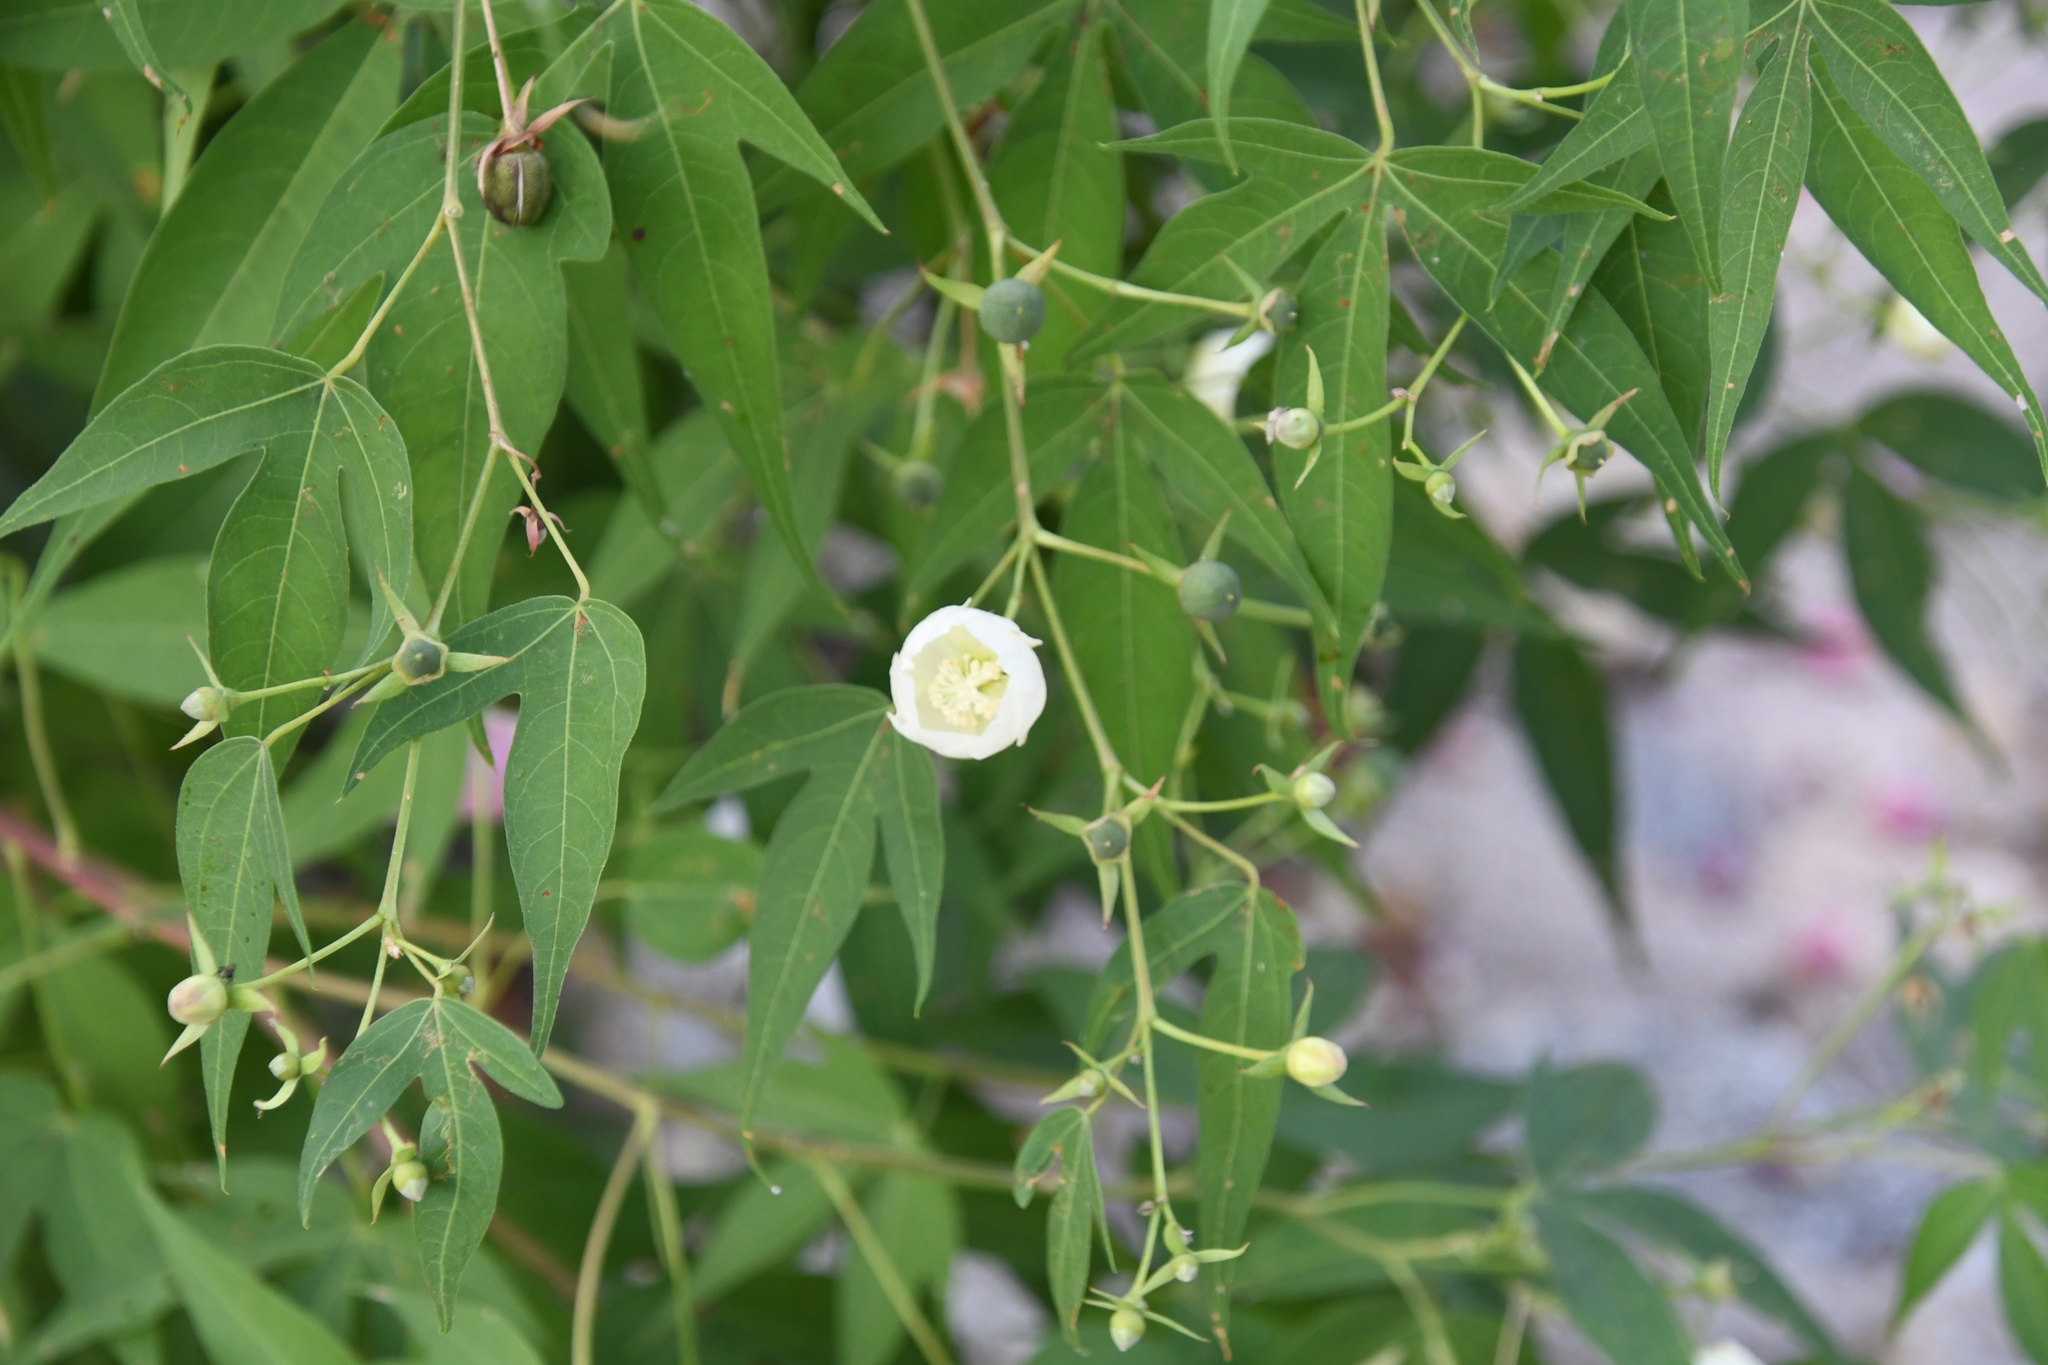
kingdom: Plantae
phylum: Tracheophyta
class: Magnoliopsida
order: Malvales
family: Malvaceae
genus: Gossypium
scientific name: Gossypium thurberi
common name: Desert cotton
